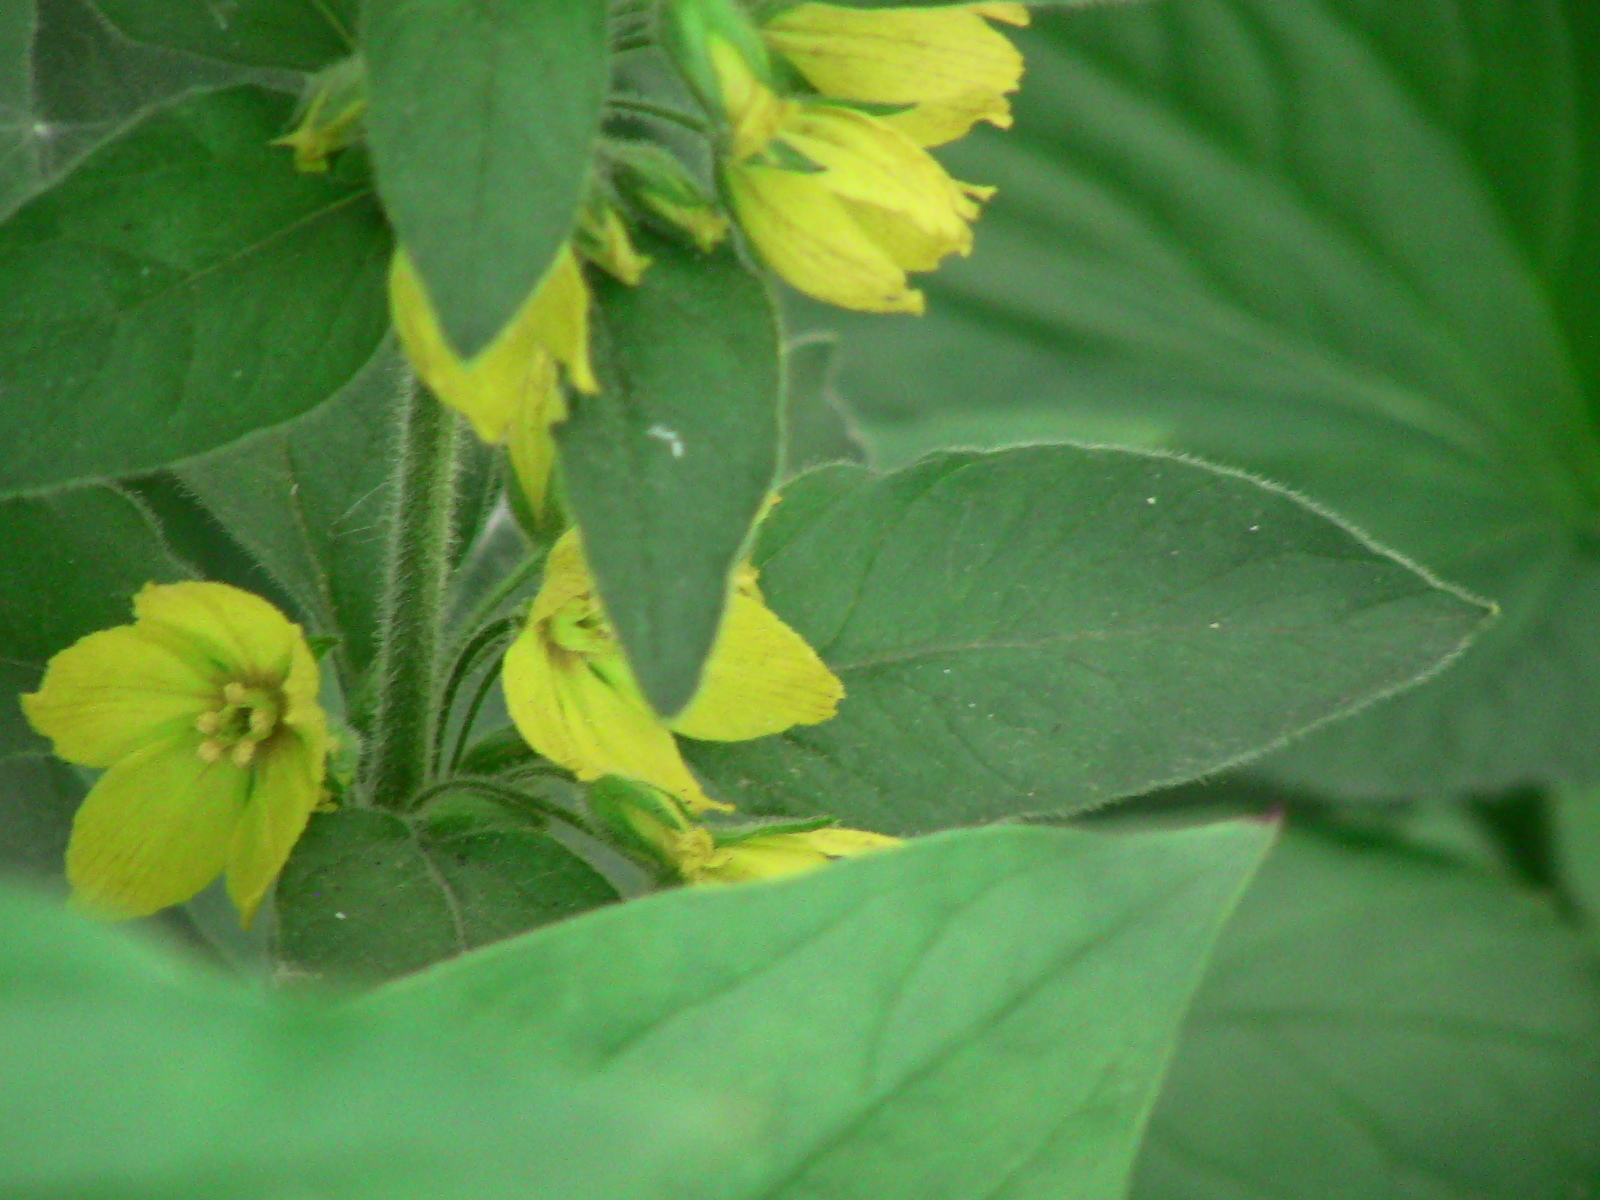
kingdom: Plantae
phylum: Tracheophyta
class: Magnoliopsida
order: Ericales
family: Primulaceae
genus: Lysimachia
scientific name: Lysimachia punctata
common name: Dotted loosestrife
